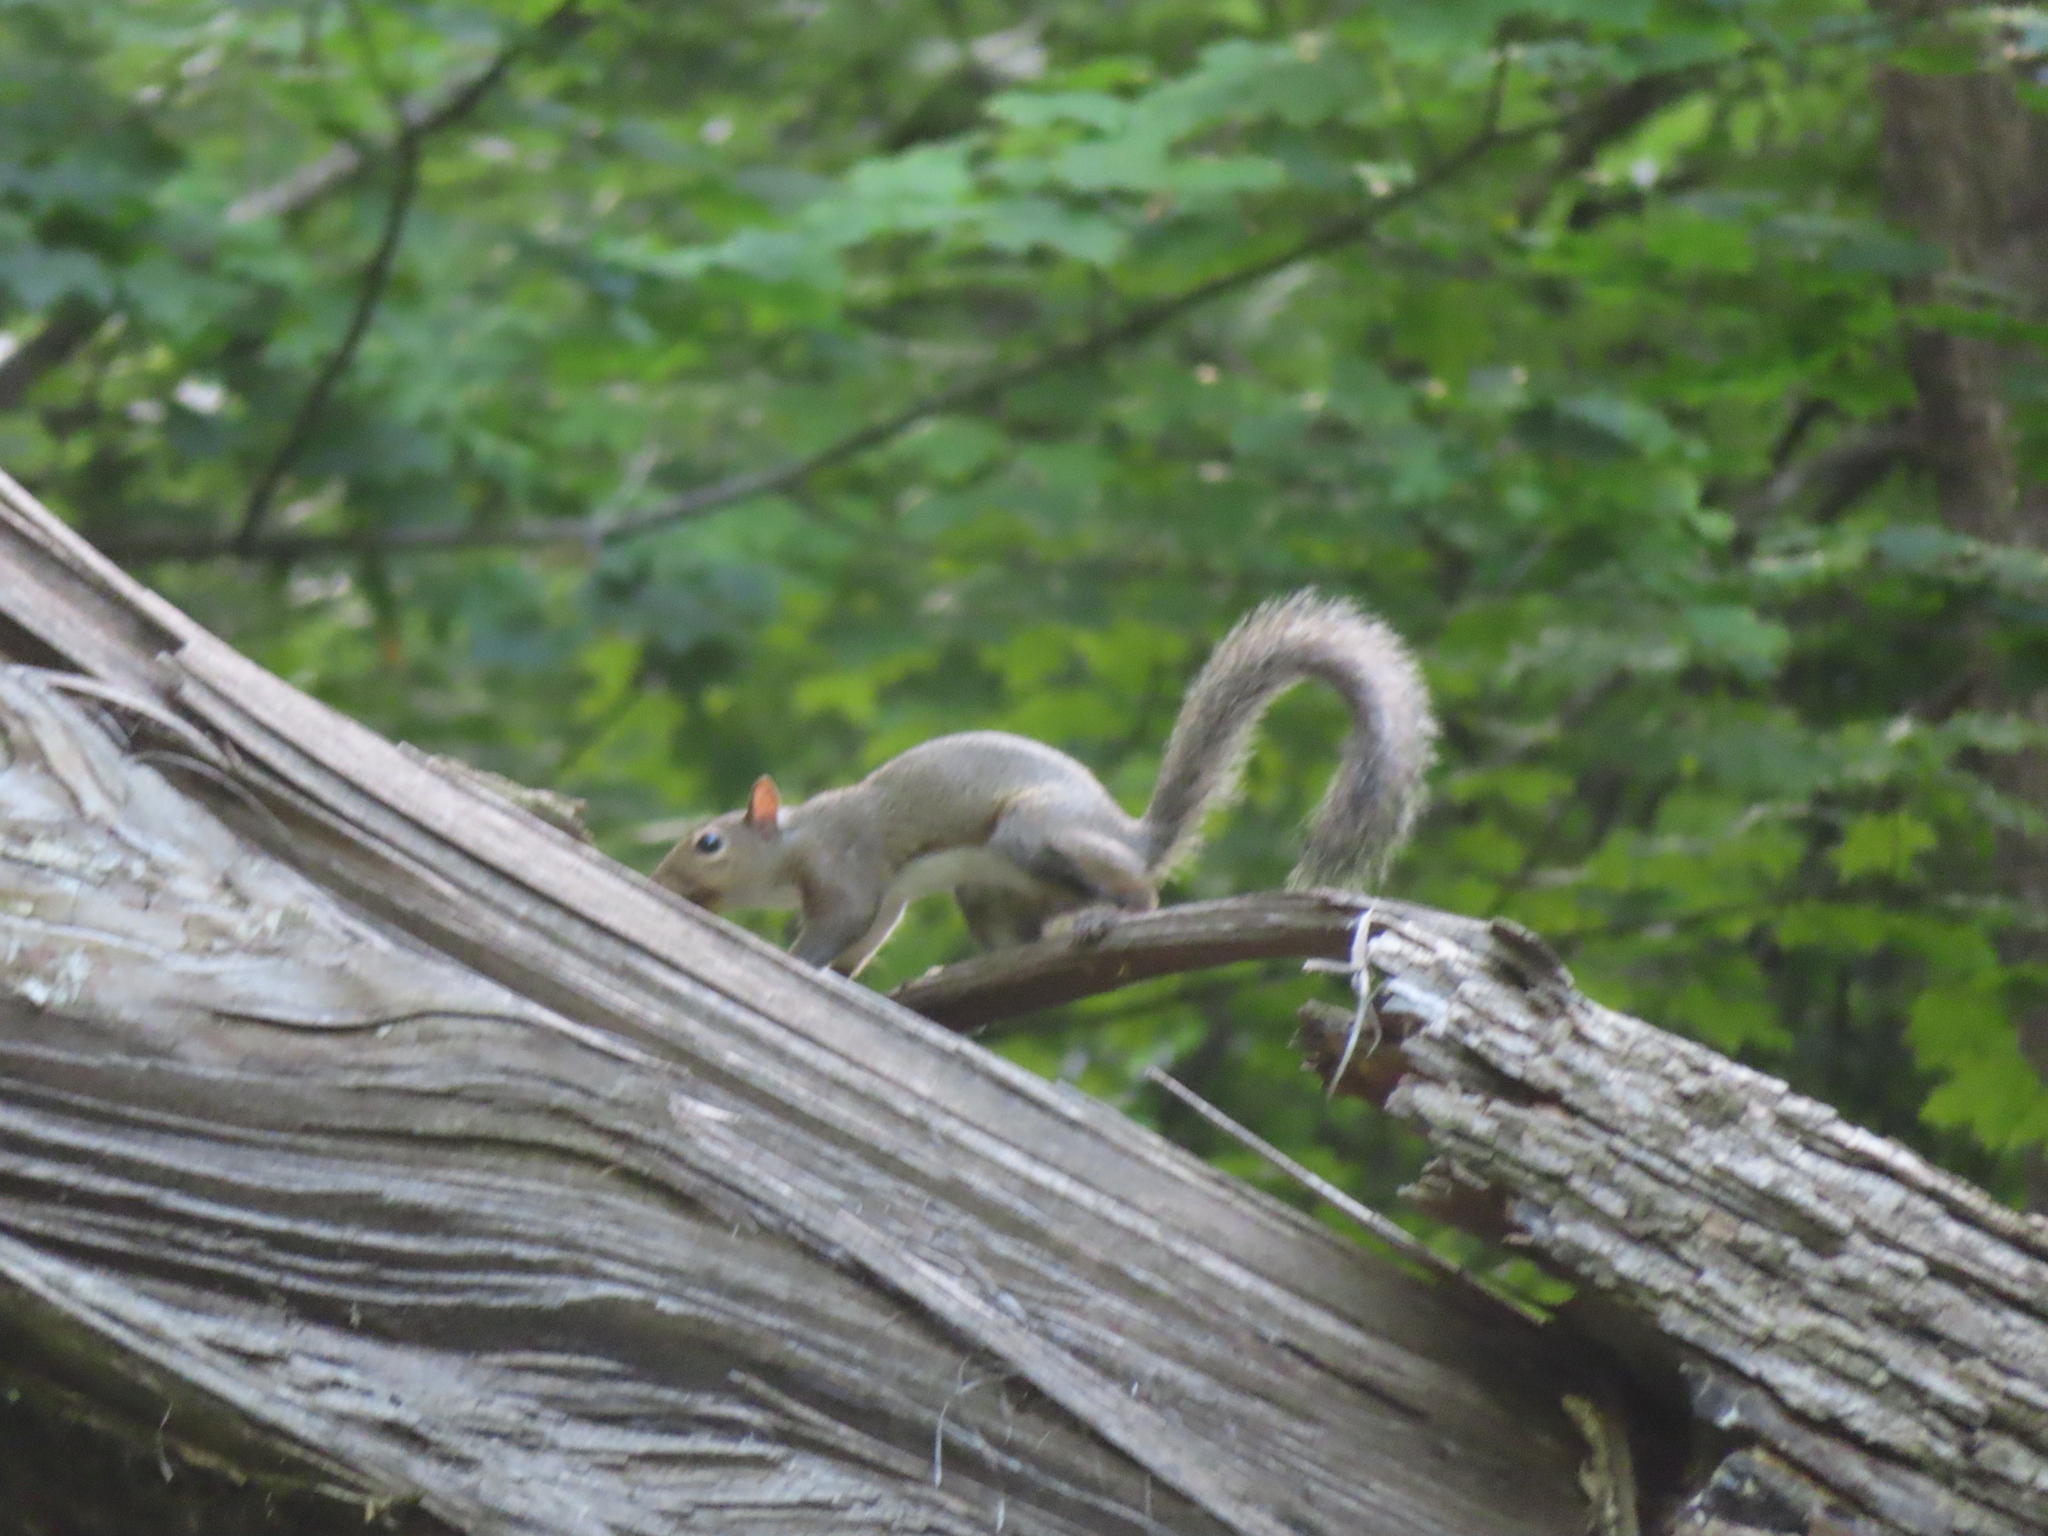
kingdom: Animalia
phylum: Chordata
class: Mammalia
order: Rodentia
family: Sciuridae
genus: Sciurus
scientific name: Sciurus carolinensis
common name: Eastern gray squirrel
